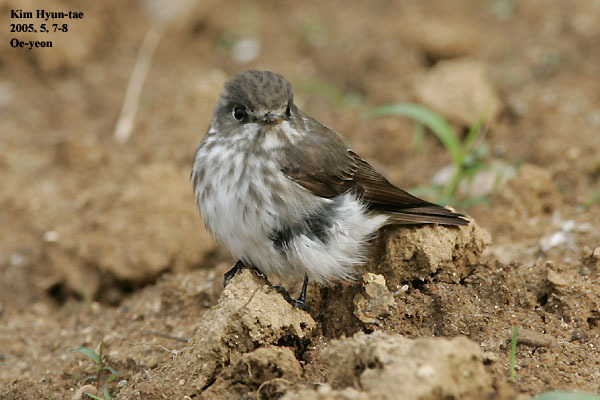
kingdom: Animalia
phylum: Chordata
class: Aves
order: Passeriformes
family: Muscicapidae
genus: Muscicapa
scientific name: Muscicapa griseisticta
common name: Gray-streaked flycatcher
